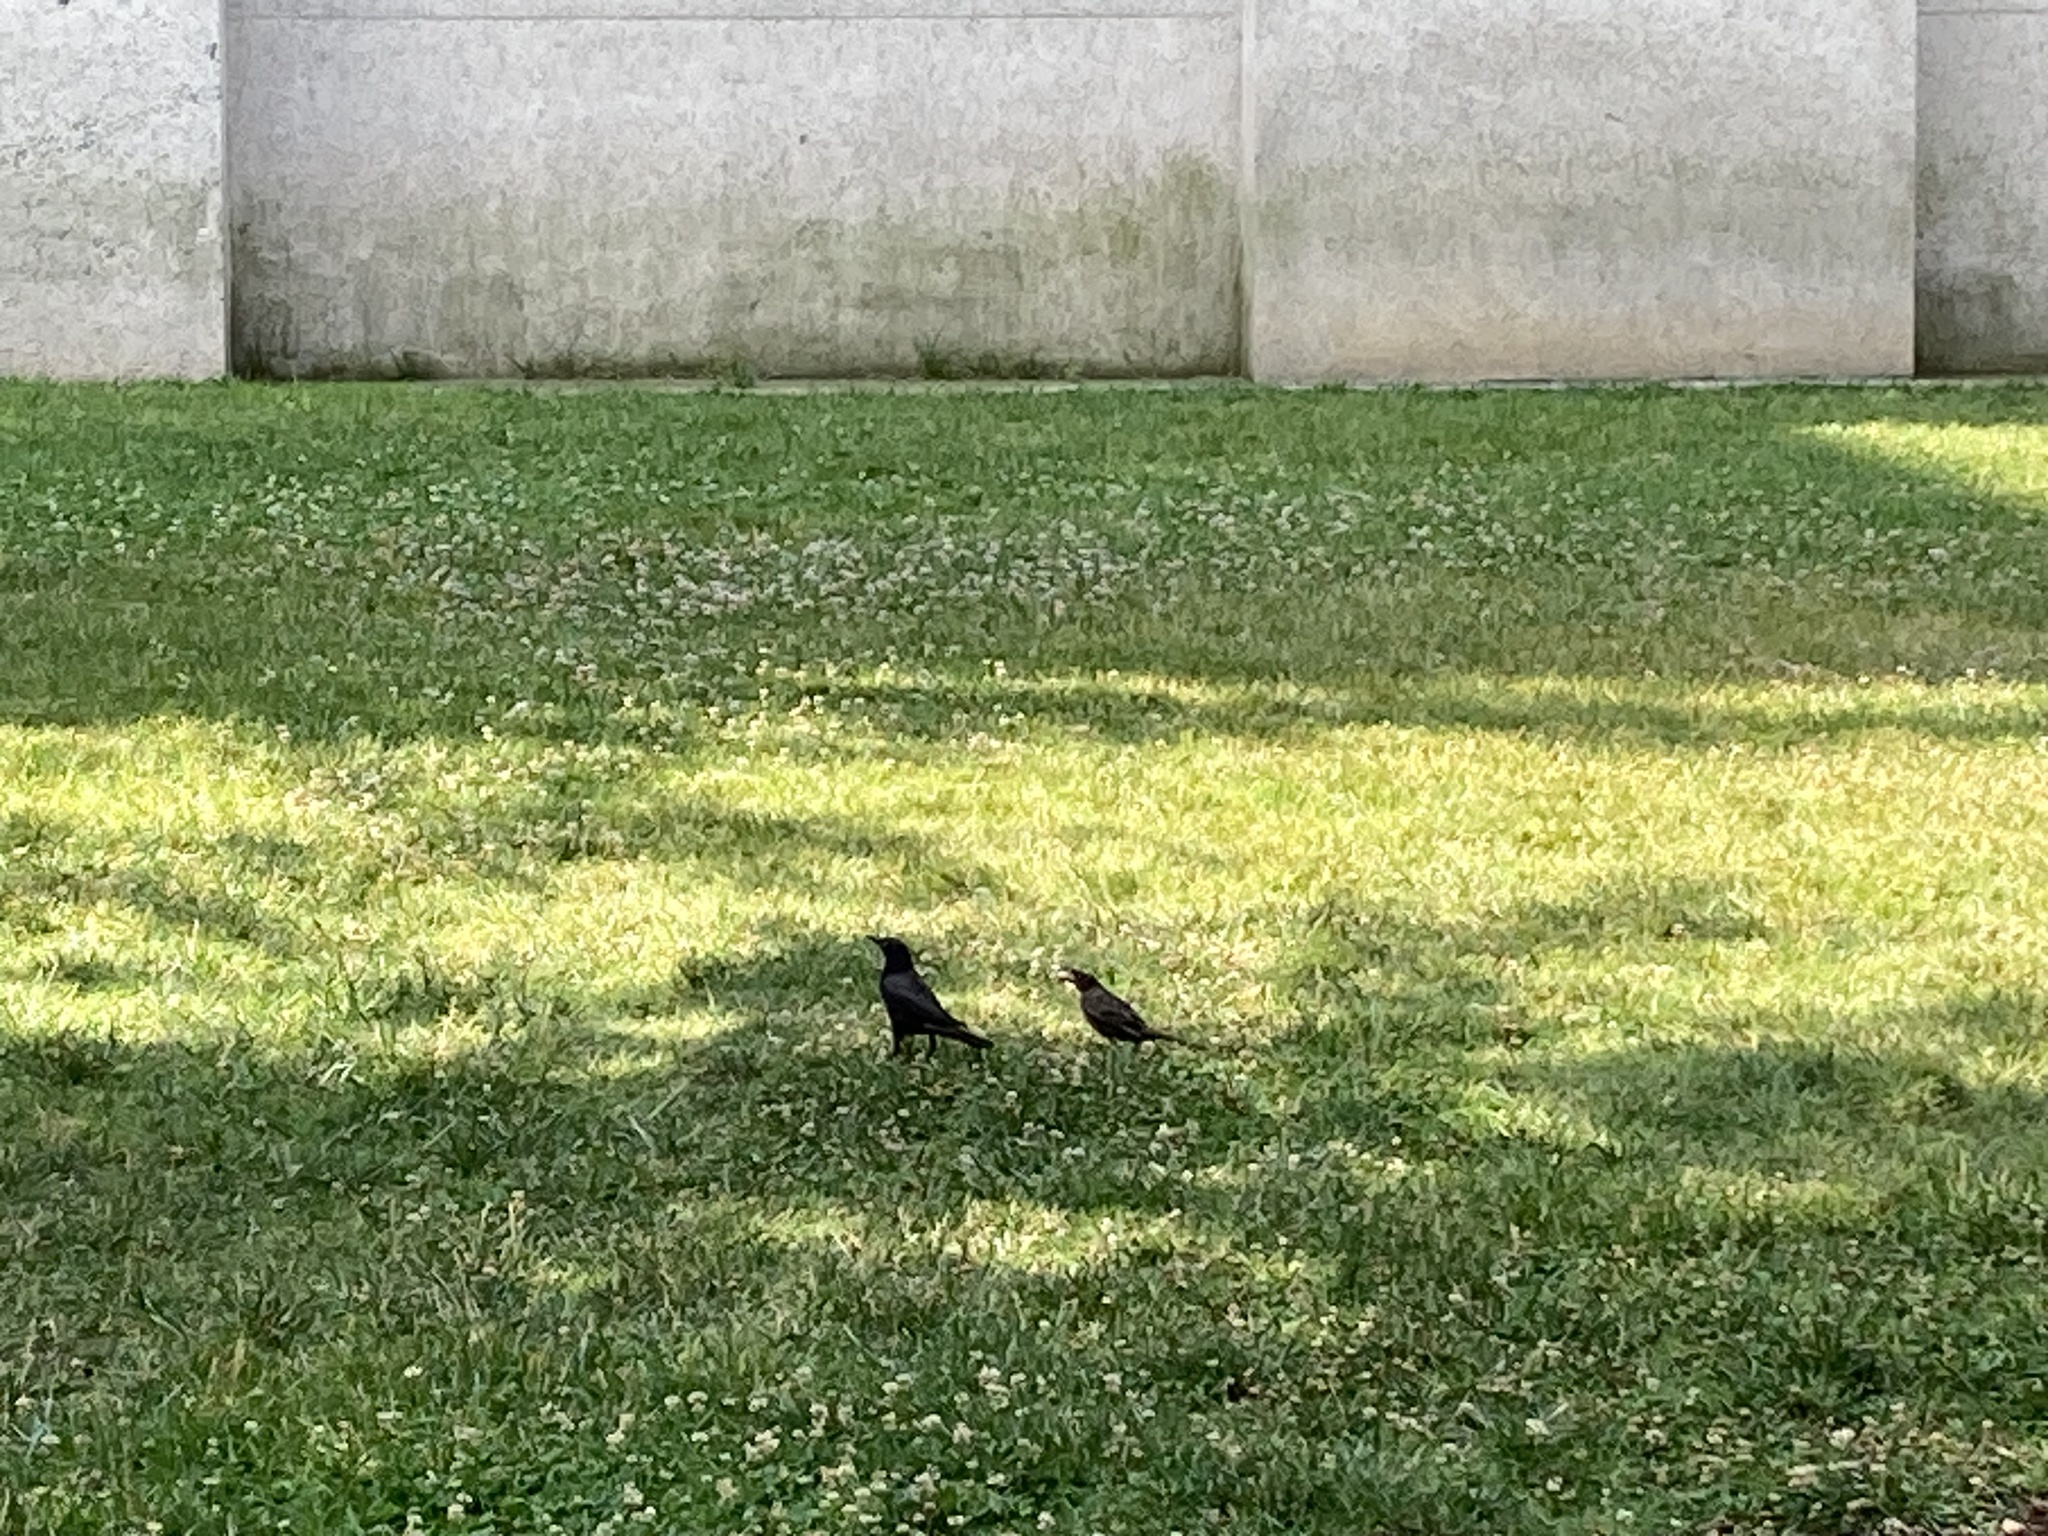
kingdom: Animalia
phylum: Chordata
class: Aves
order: Passeriformes
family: Icteridae
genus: Quiscalus
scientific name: Quiscalus quiscula
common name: Common grackle
